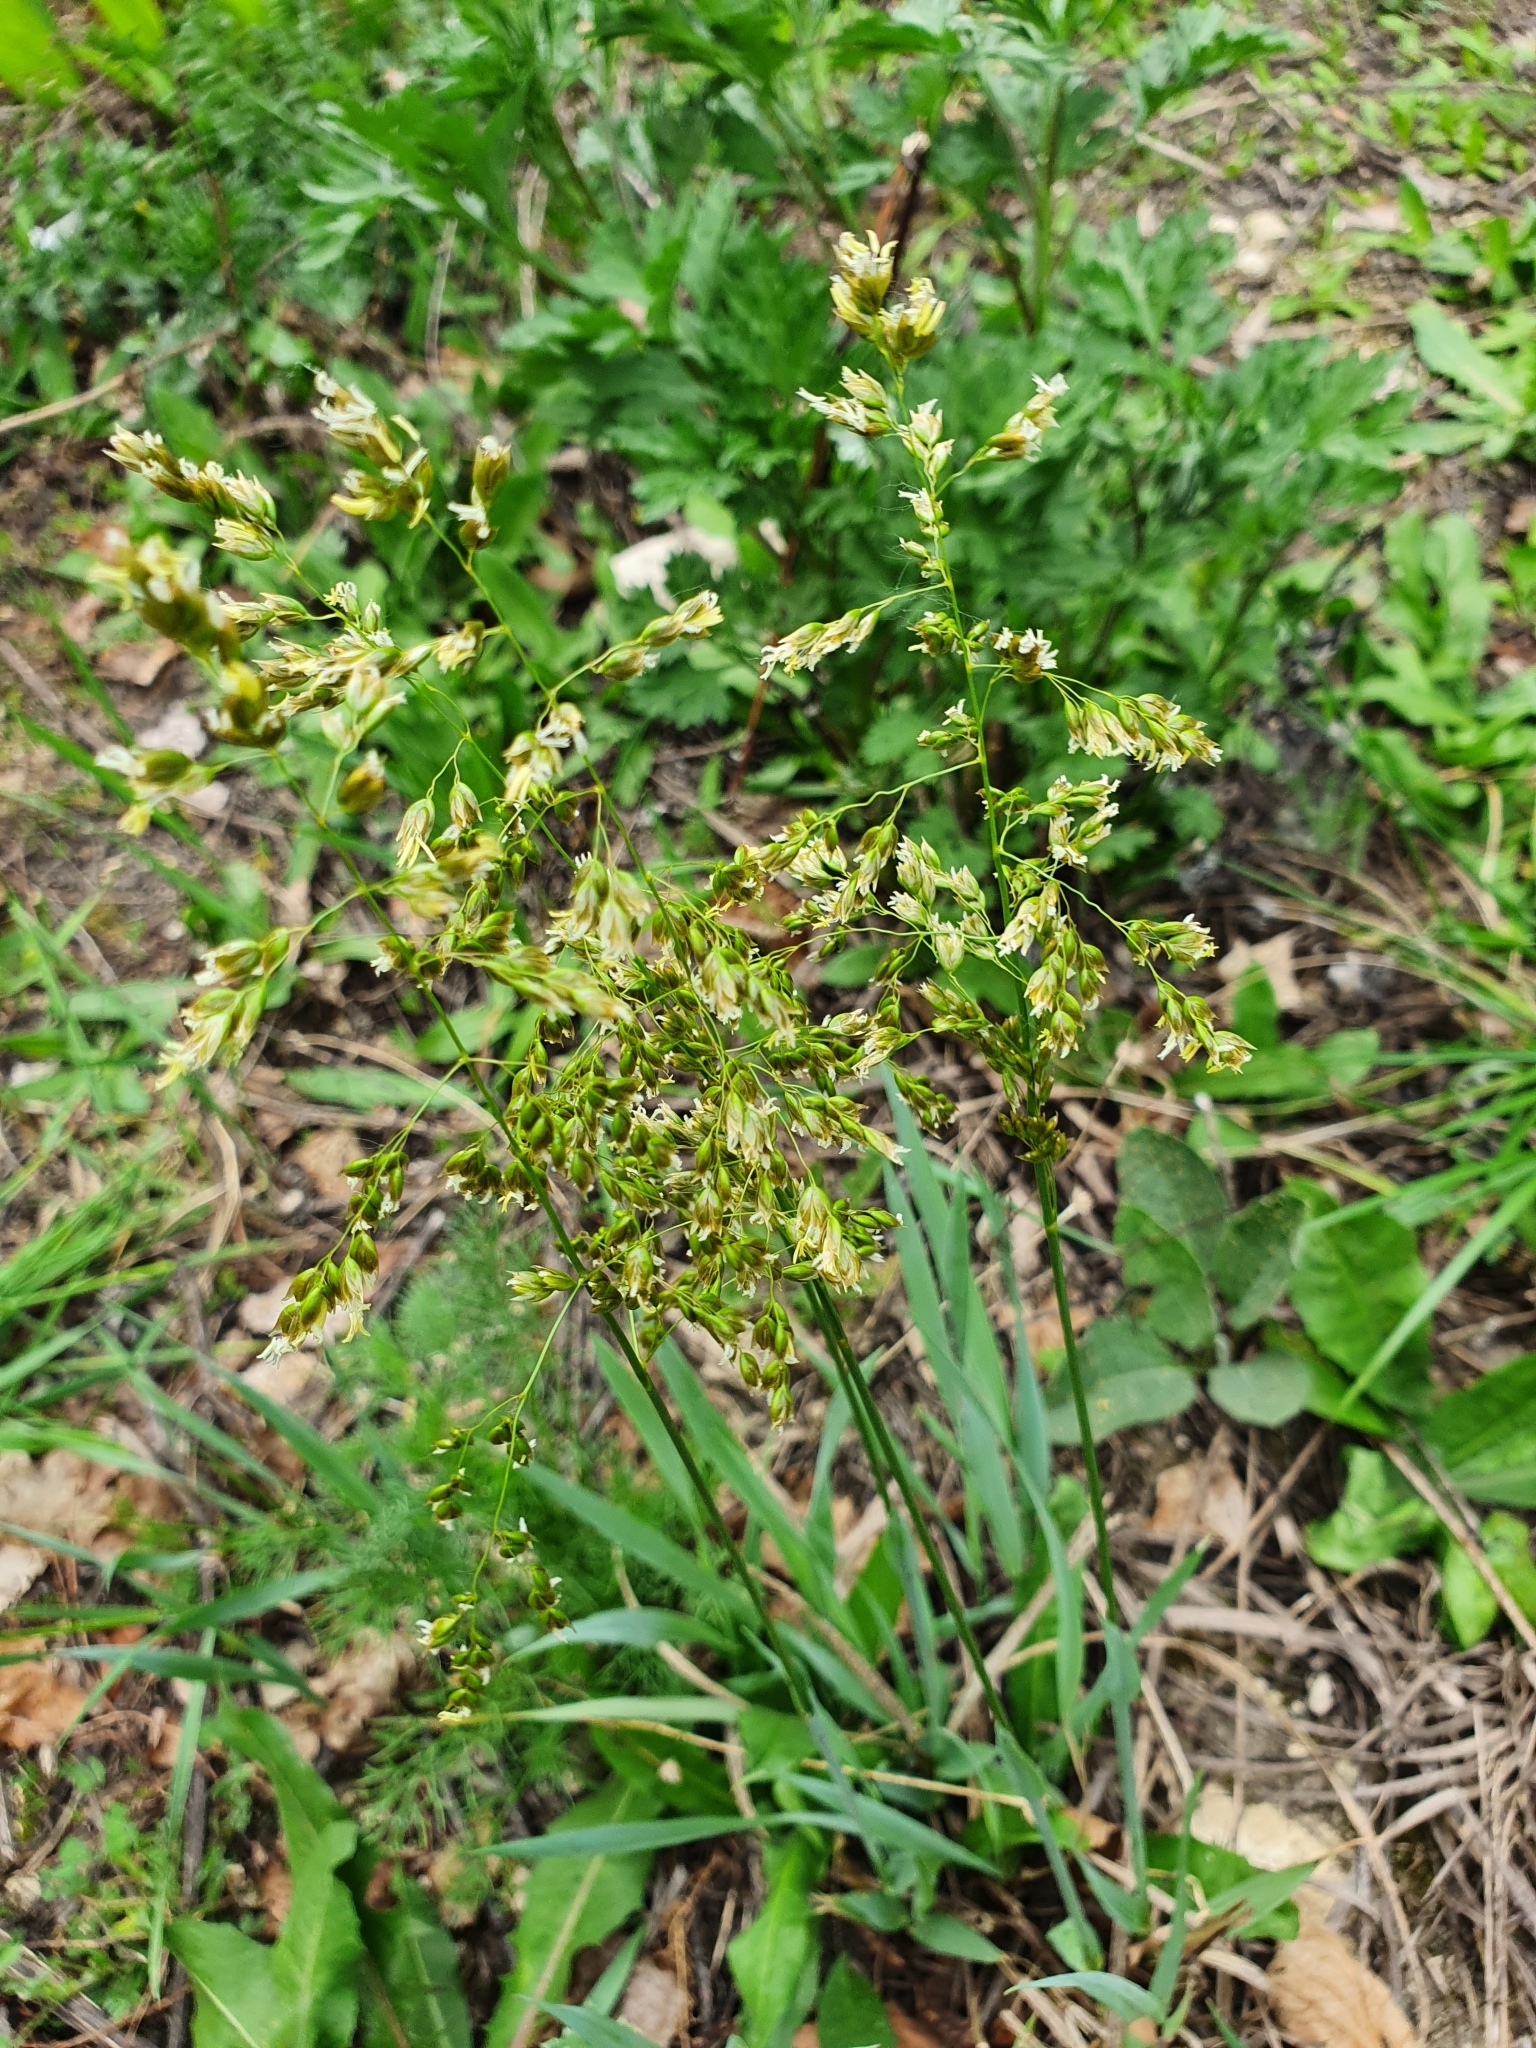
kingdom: Plantae
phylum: Tracheophyta
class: Liliopsida
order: Poales
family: Poaceae
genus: Anthoxanthum
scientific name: Anthoxanthum repens
